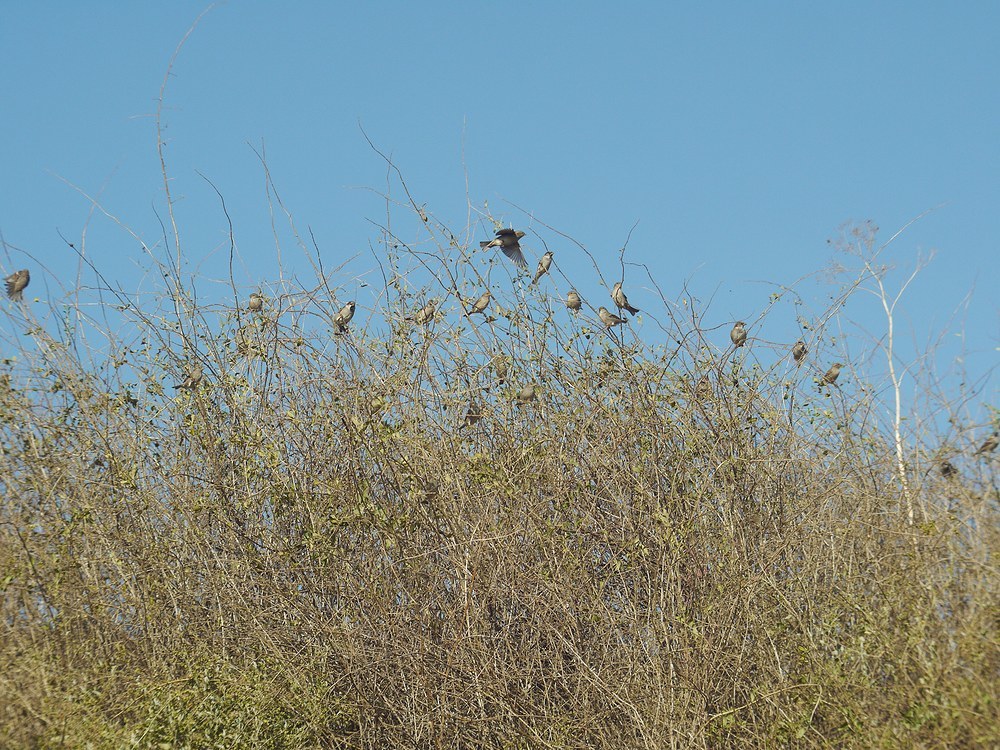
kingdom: Animalia
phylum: Chordata
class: Aves
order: Passeriformes
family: Passeridae
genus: Passer
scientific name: Passer domesticus
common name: House sparrow
